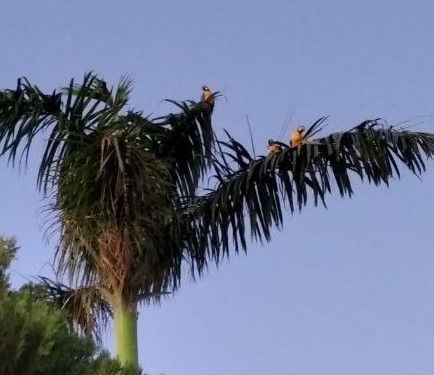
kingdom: Animalia
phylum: Chordata
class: Aves
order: Psittaciformes
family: Psittacidae
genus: Ara
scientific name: Ara ararauna
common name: Blue-and-yellow macaw
